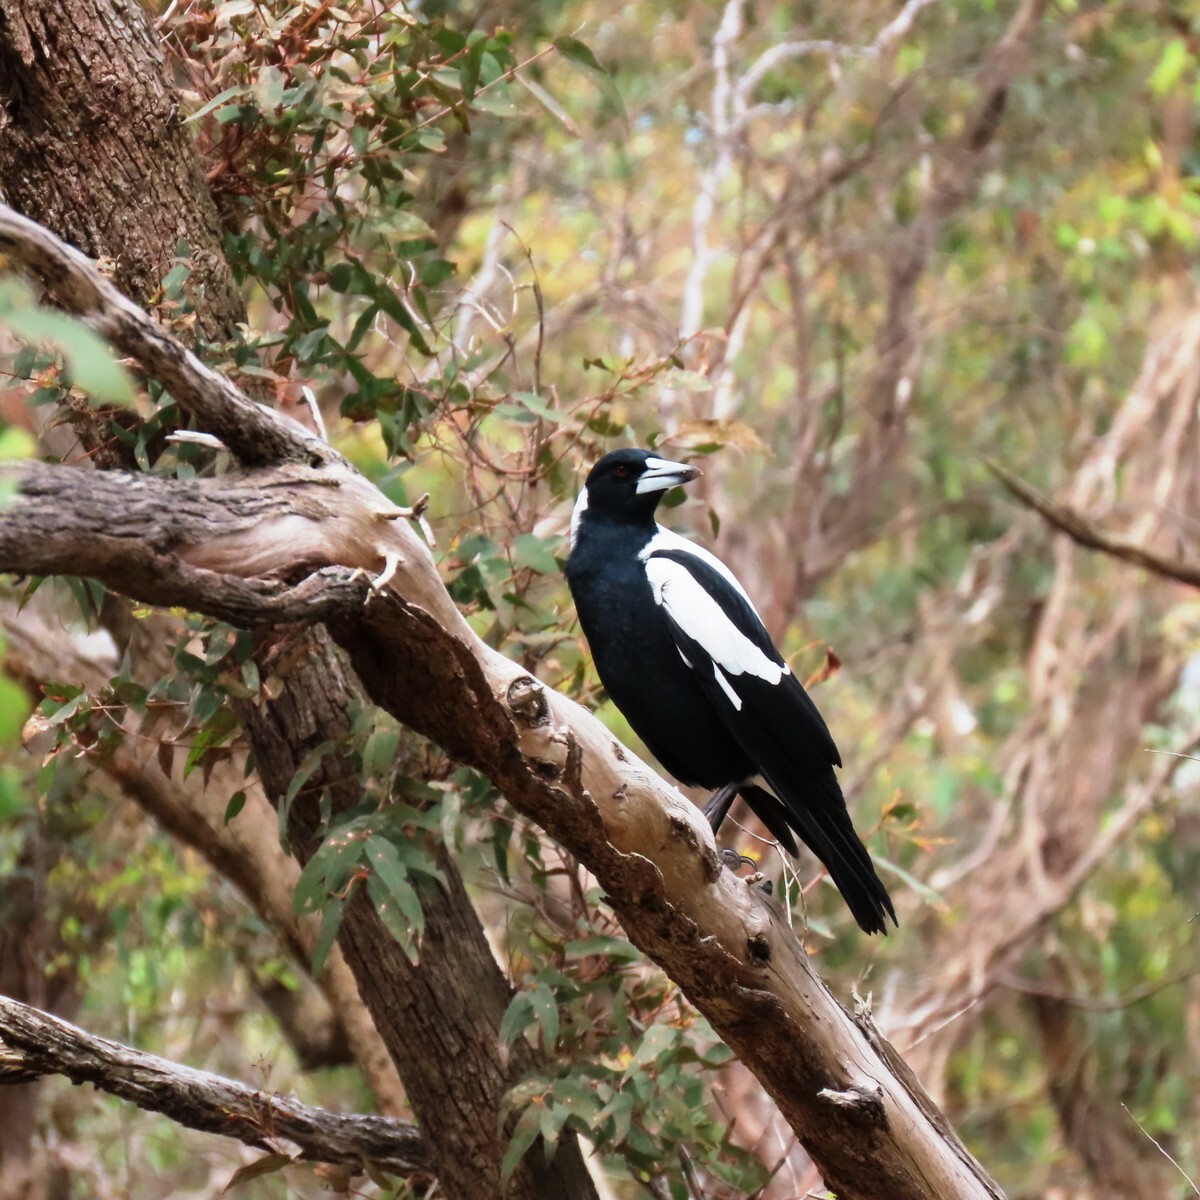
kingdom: Animalia
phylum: Chordata
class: Aves
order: Passeriformes
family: Cracticidae
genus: Gymnorhina
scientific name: Gymnorhina tibicen
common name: Australian magpie
